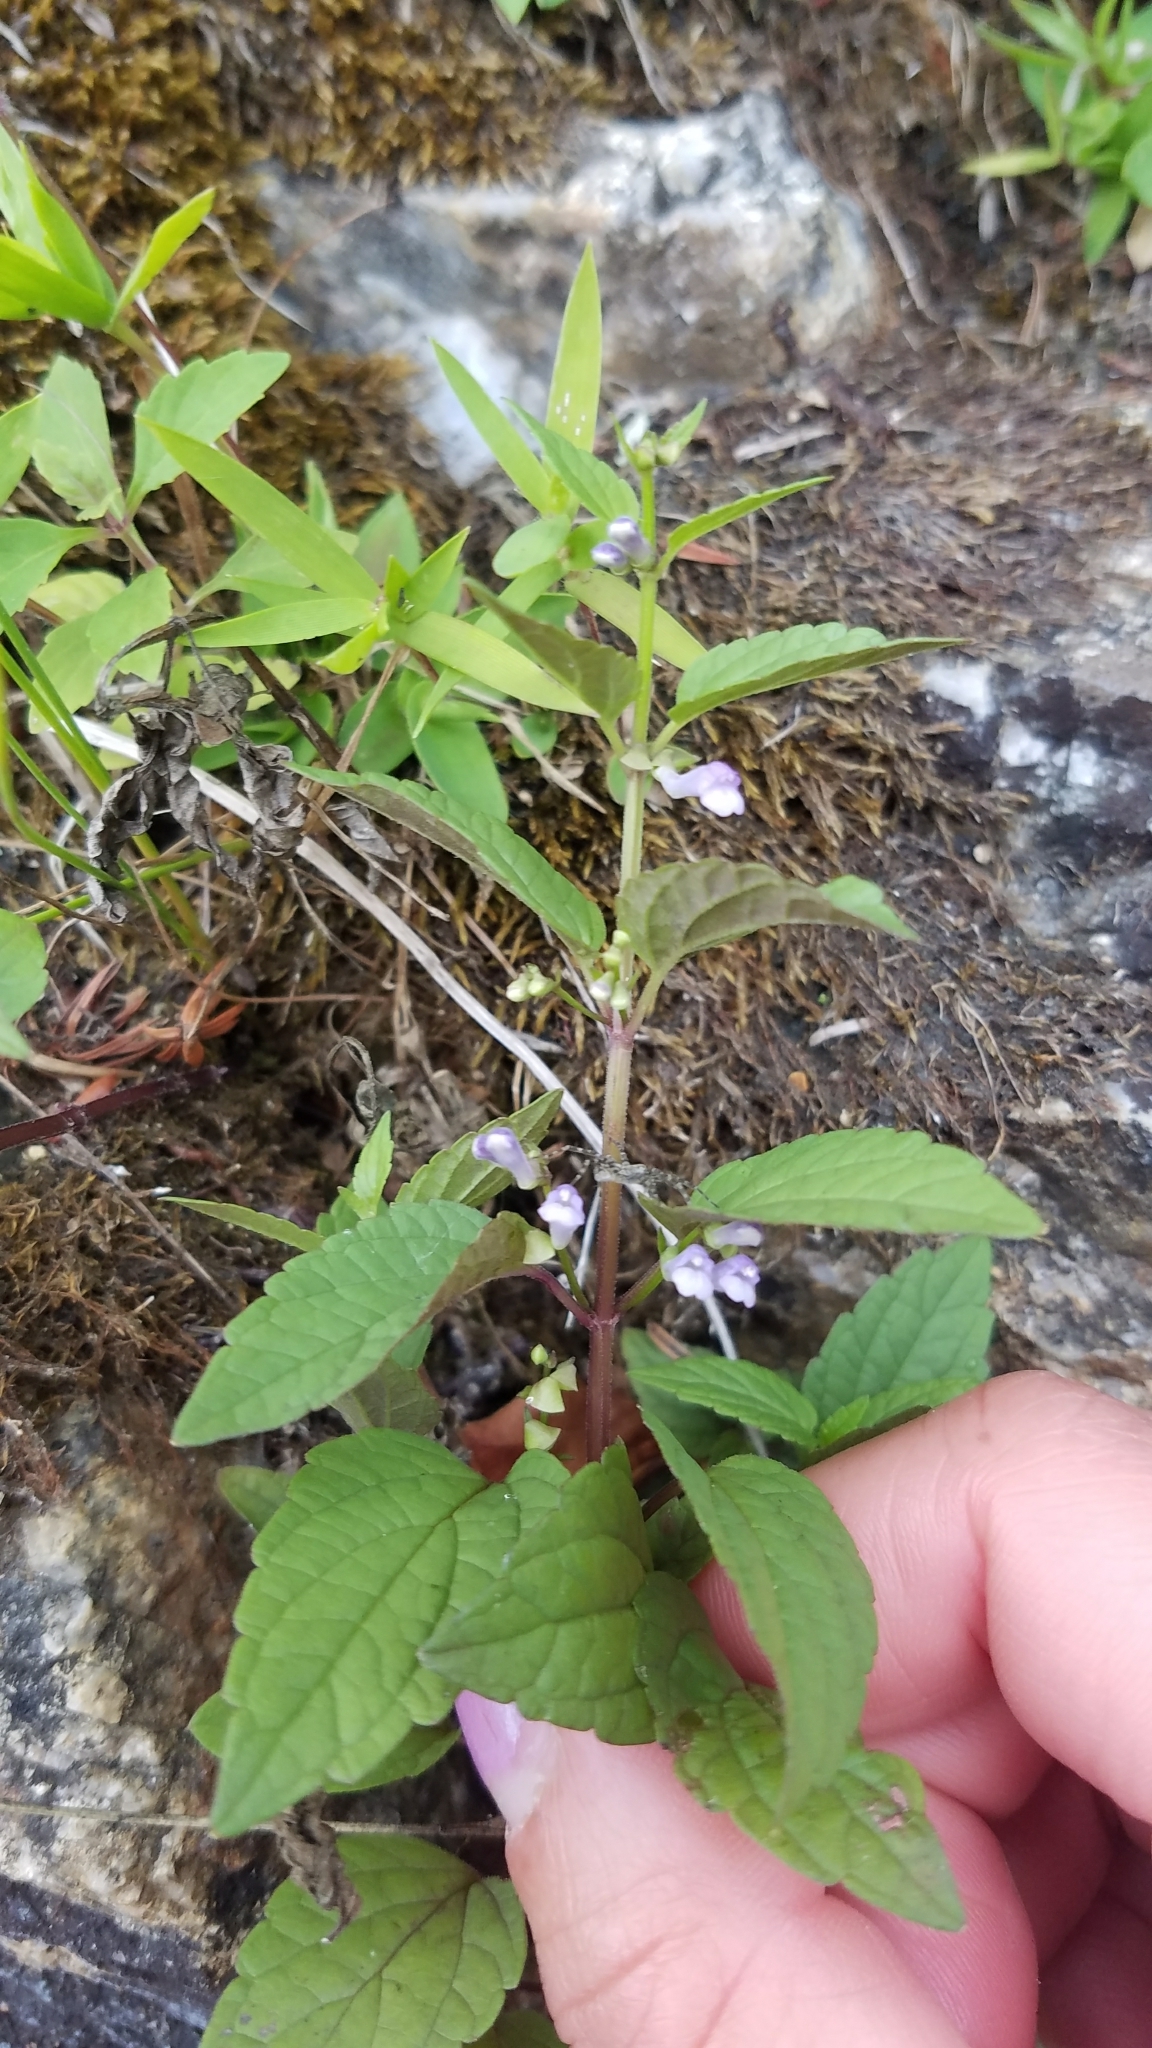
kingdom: Plantae
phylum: Tracheophyta
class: Magnoliopsida
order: Lamiales
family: Lamiaceae
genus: Scutellaria
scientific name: Scutellaria lateriflora
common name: Blue skullcap
